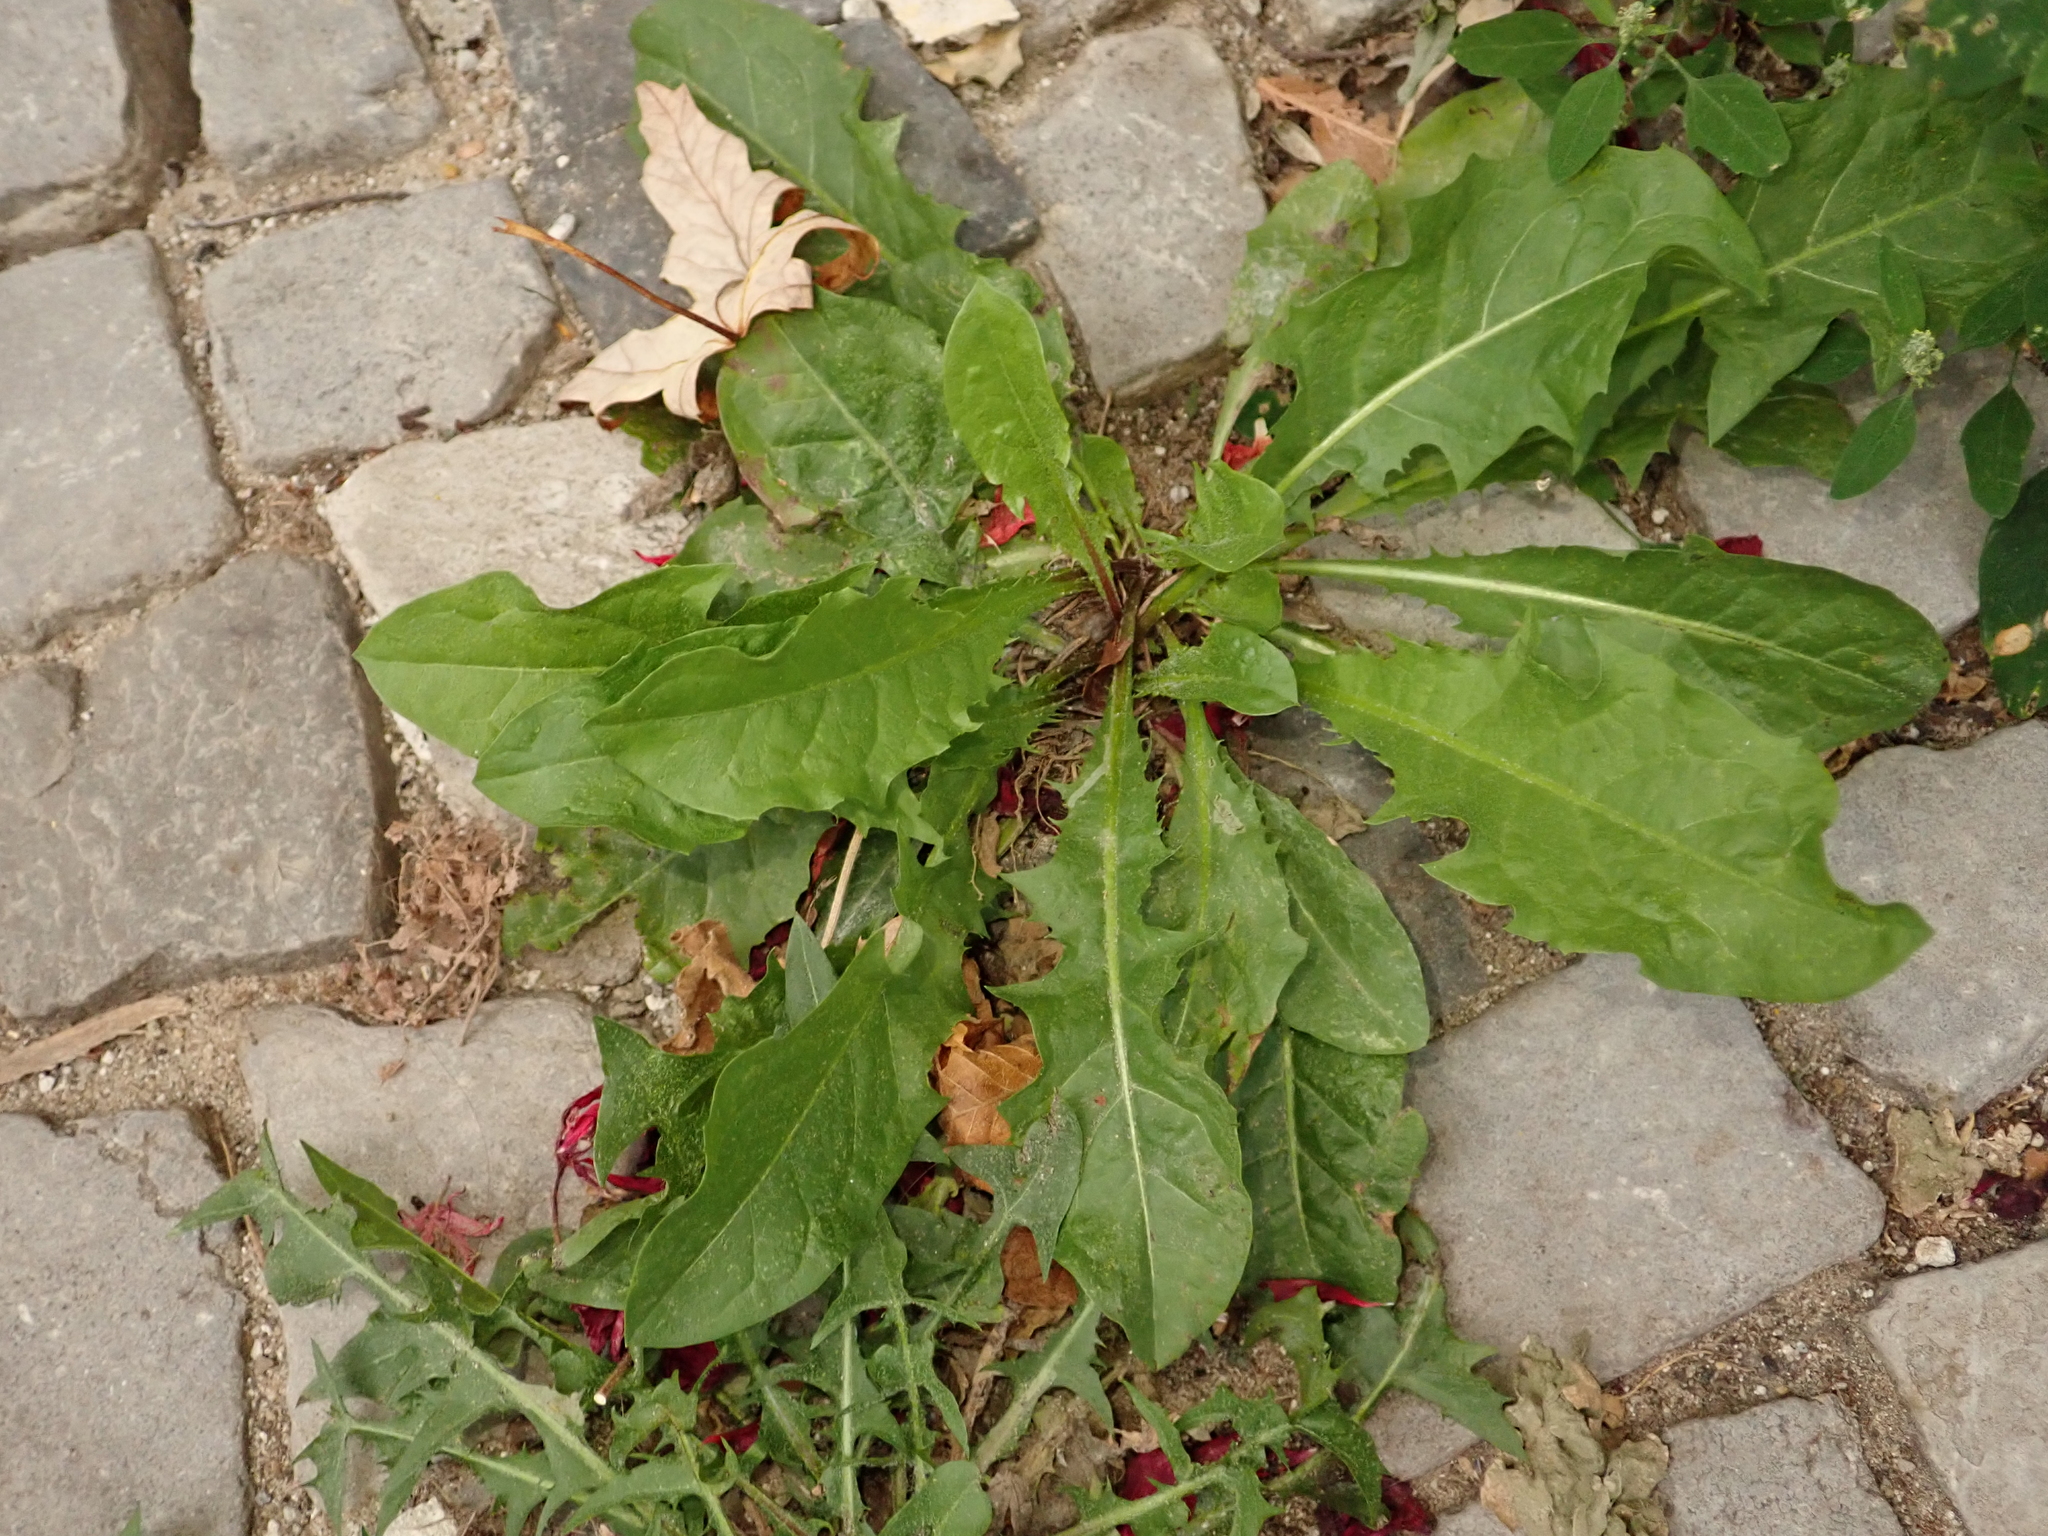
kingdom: Plantae
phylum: Tracheophyta
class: Magnoliopsida
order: Asterales
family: Asteraceae
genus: Taraxacum
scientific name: Taraxacum officinale
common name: Common dandelion
